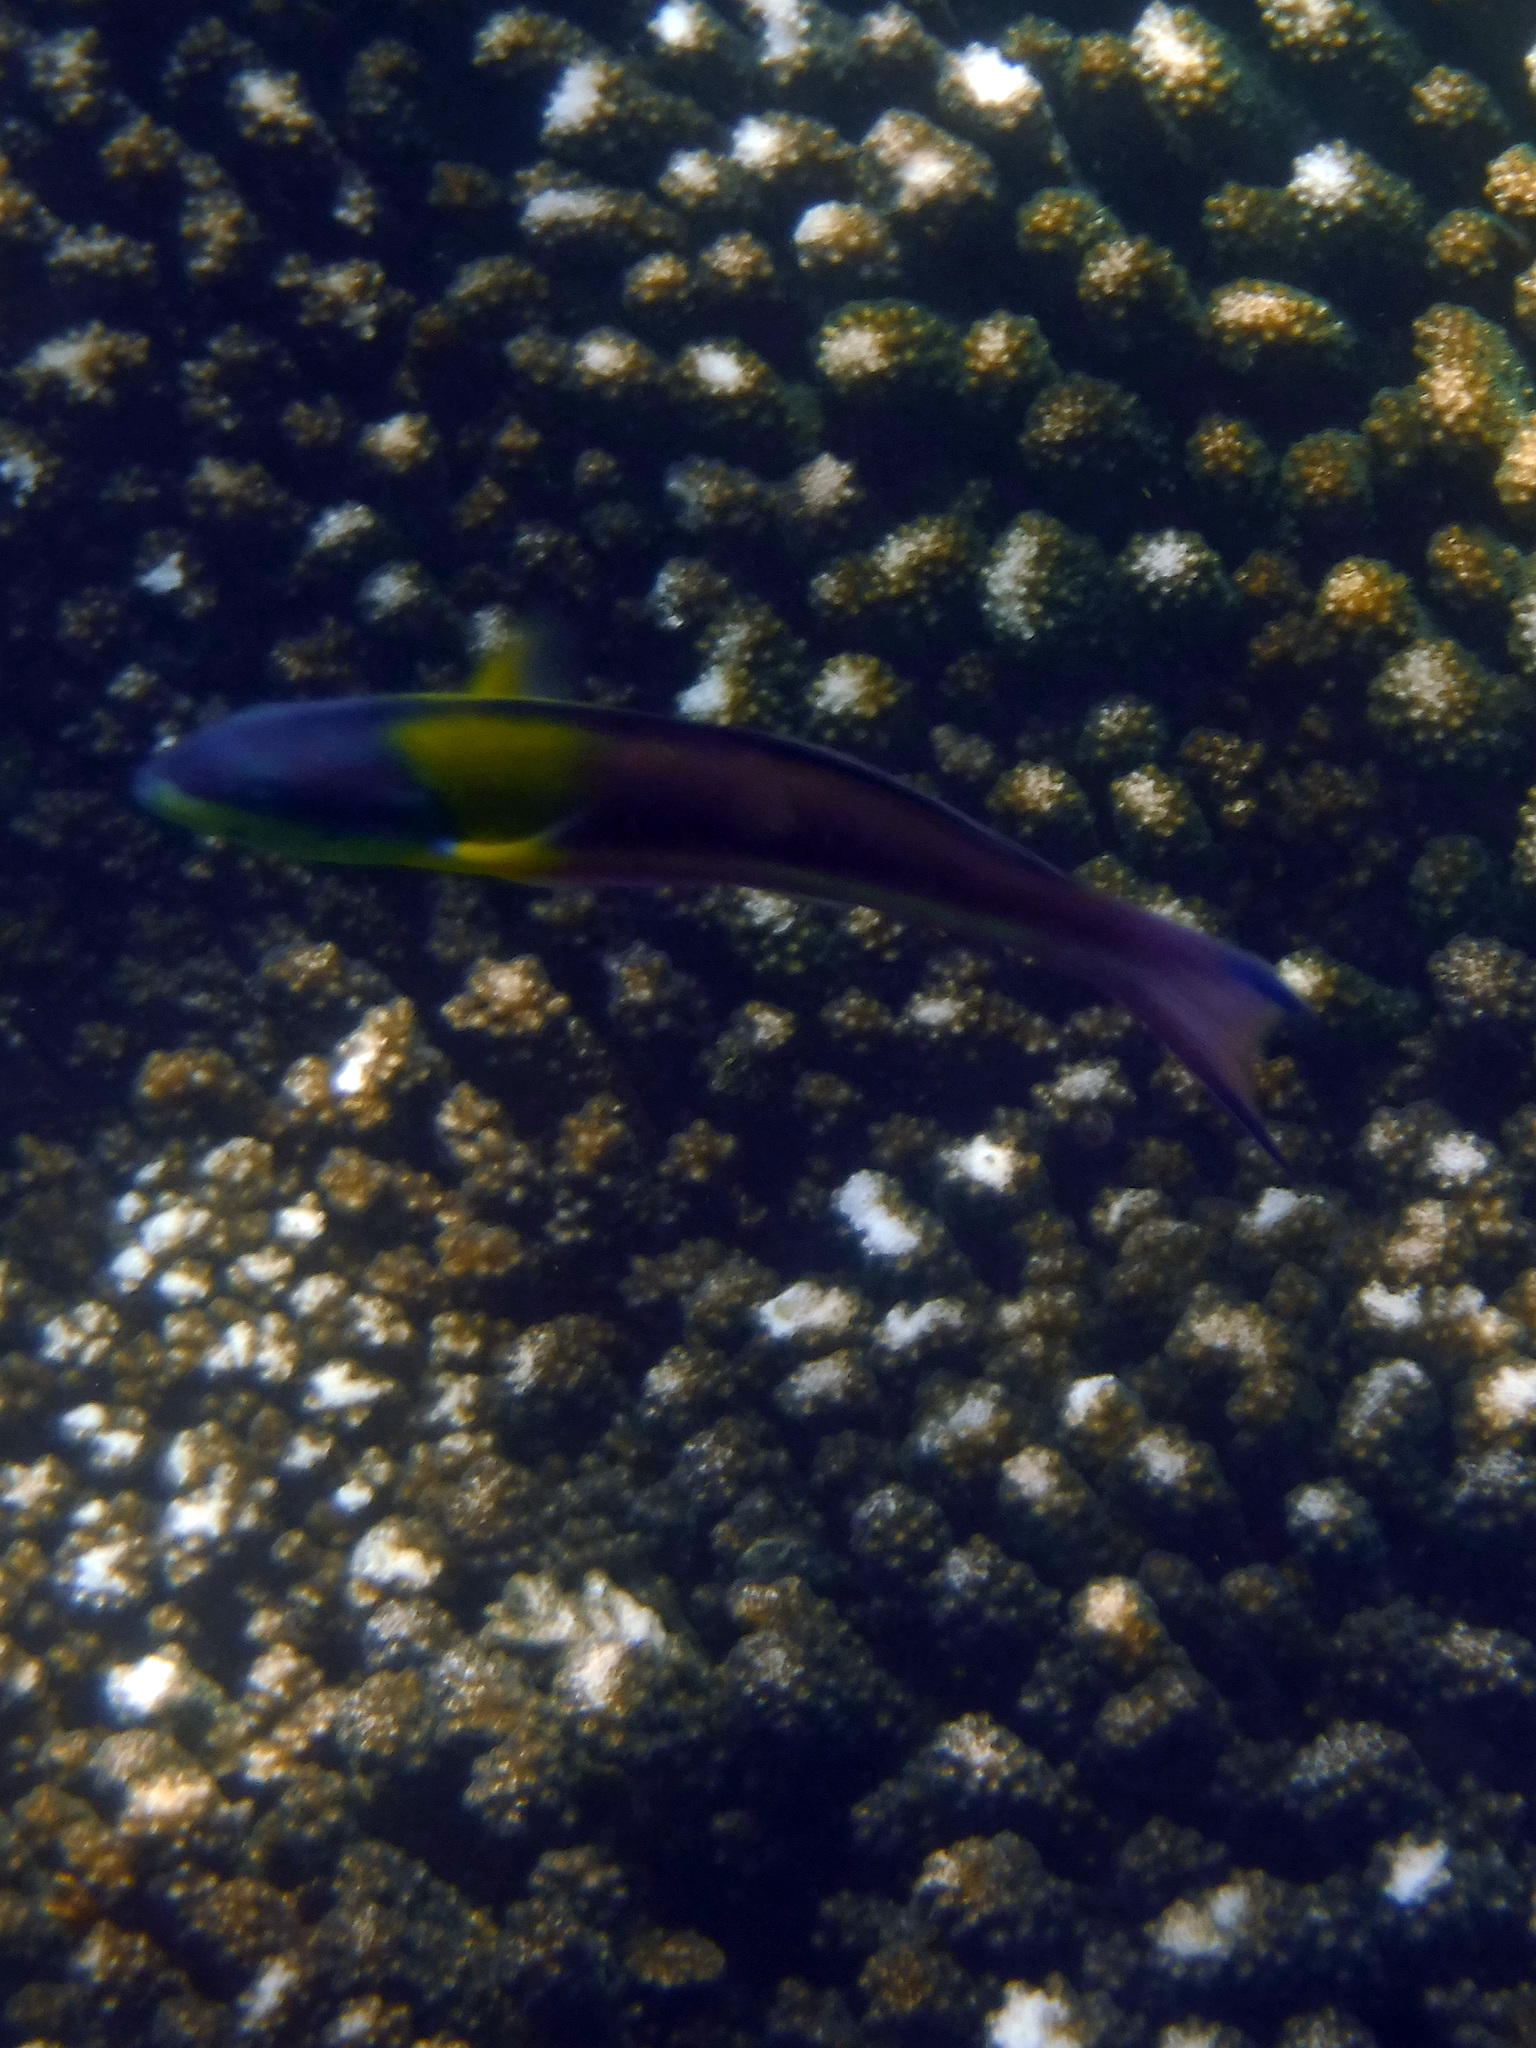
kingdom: Animalia
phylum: Chordata
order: Perciformes
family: Labridae
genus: Thalassoma
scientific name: Thalassoma lucasanum
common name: Cortez rainbow wrasse
